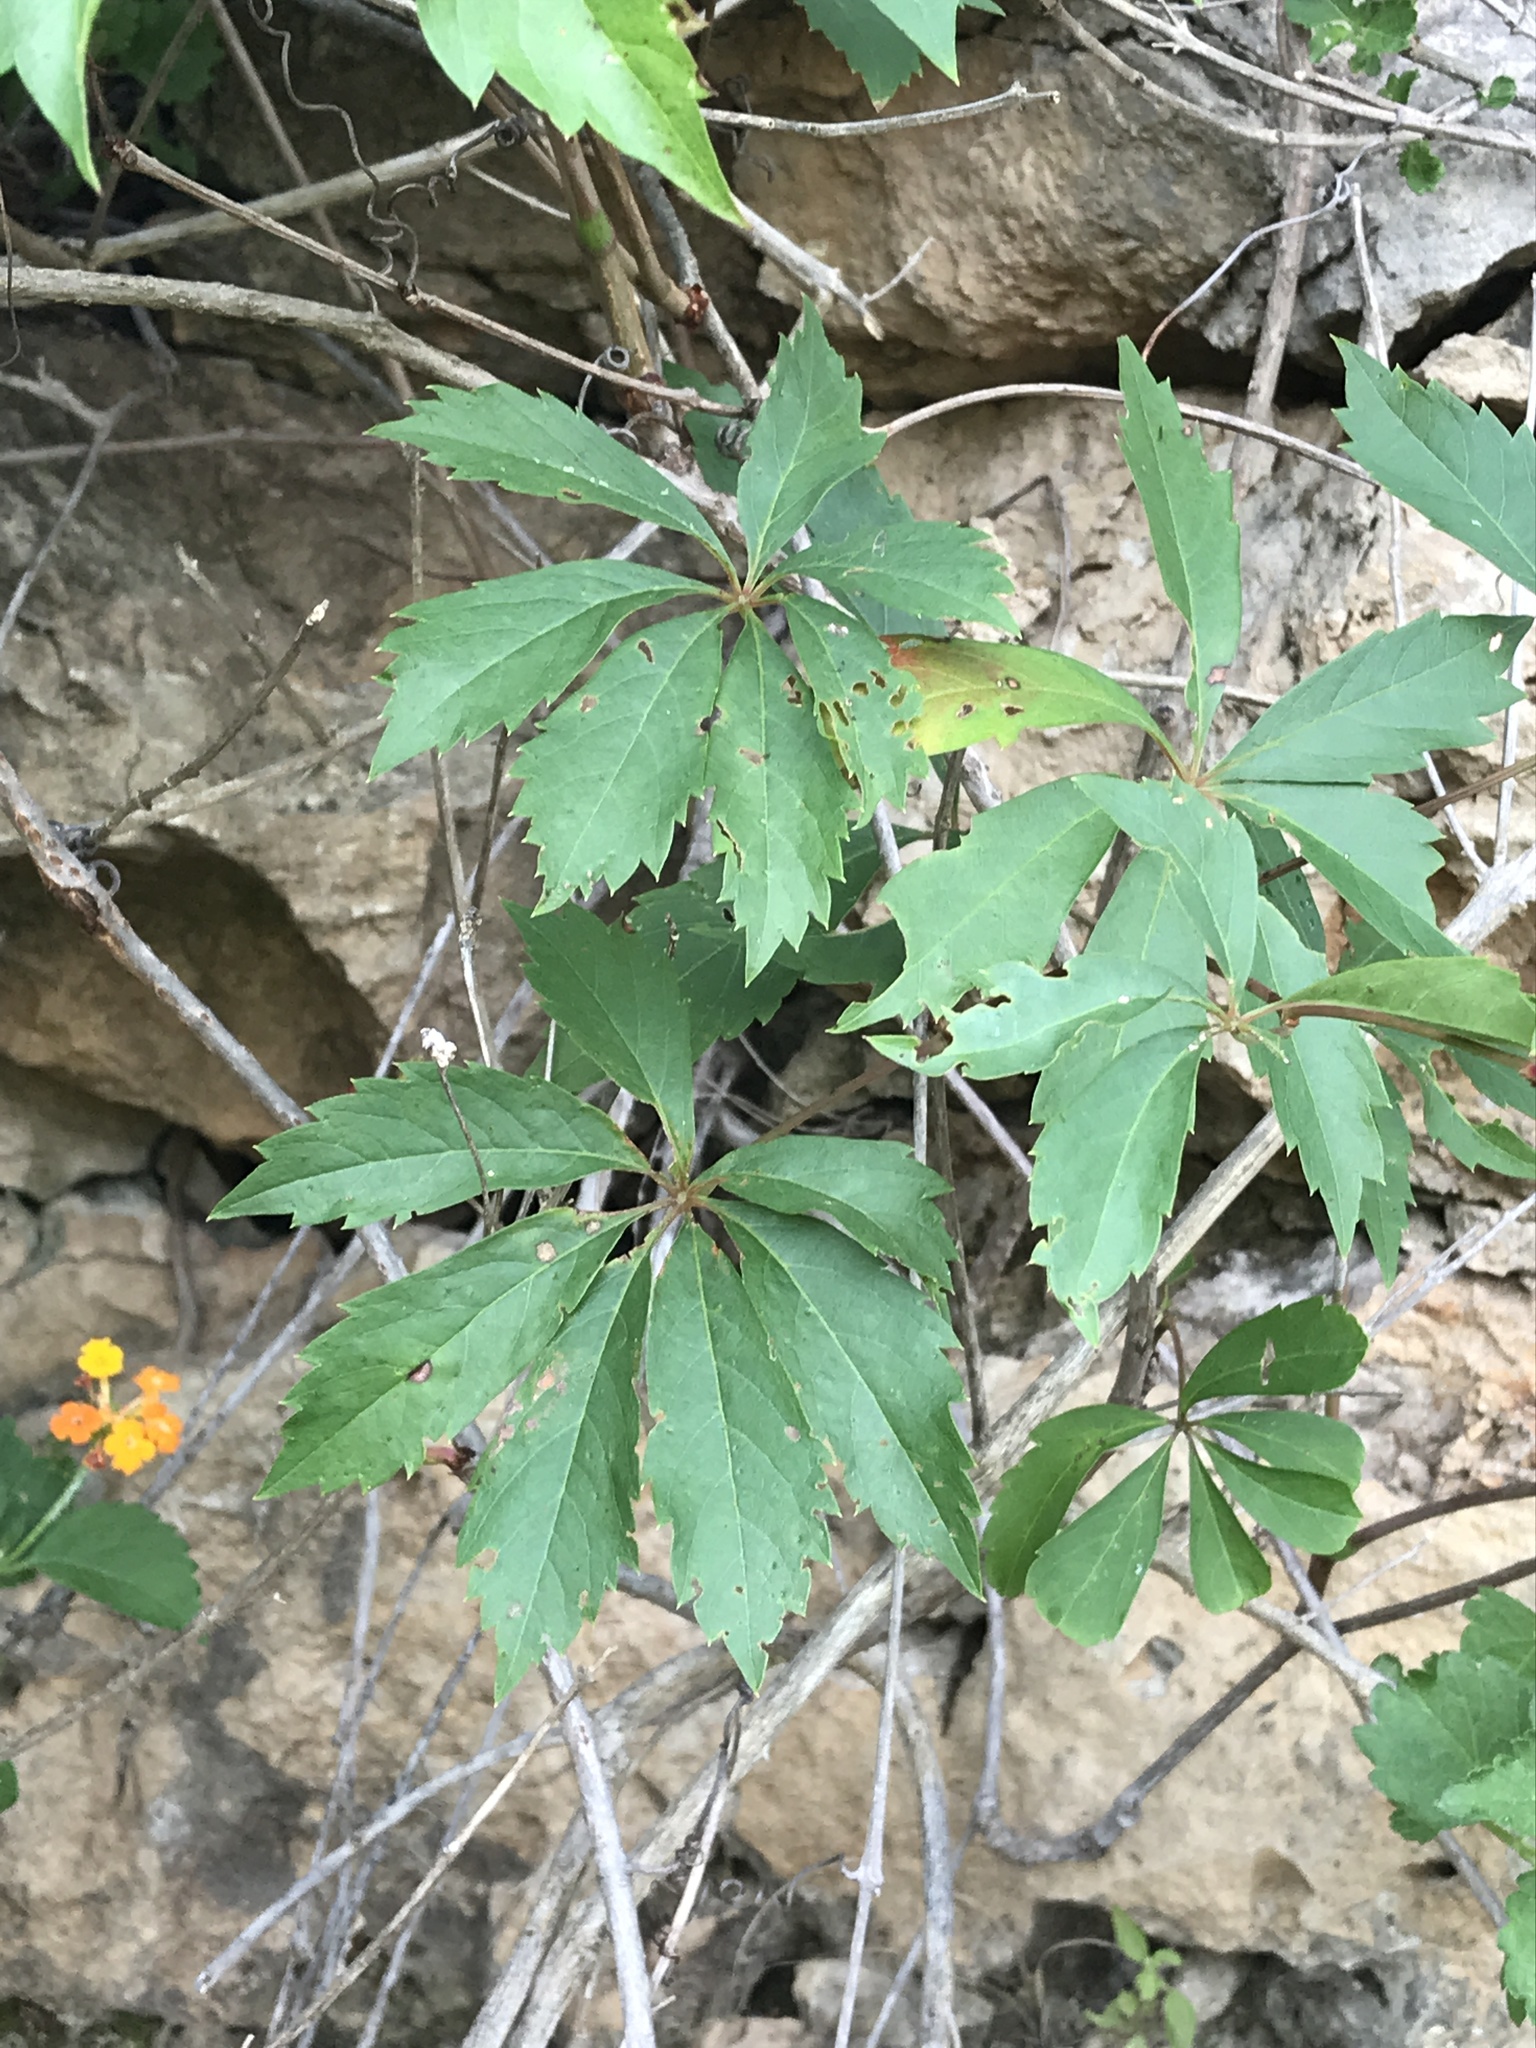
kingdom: Plantae
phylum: Tracheophyta
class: Magnoliopsida
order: Vitales
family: Vitaceae
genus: Parthenocissus
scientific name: Parthenocissus heptaphylla
